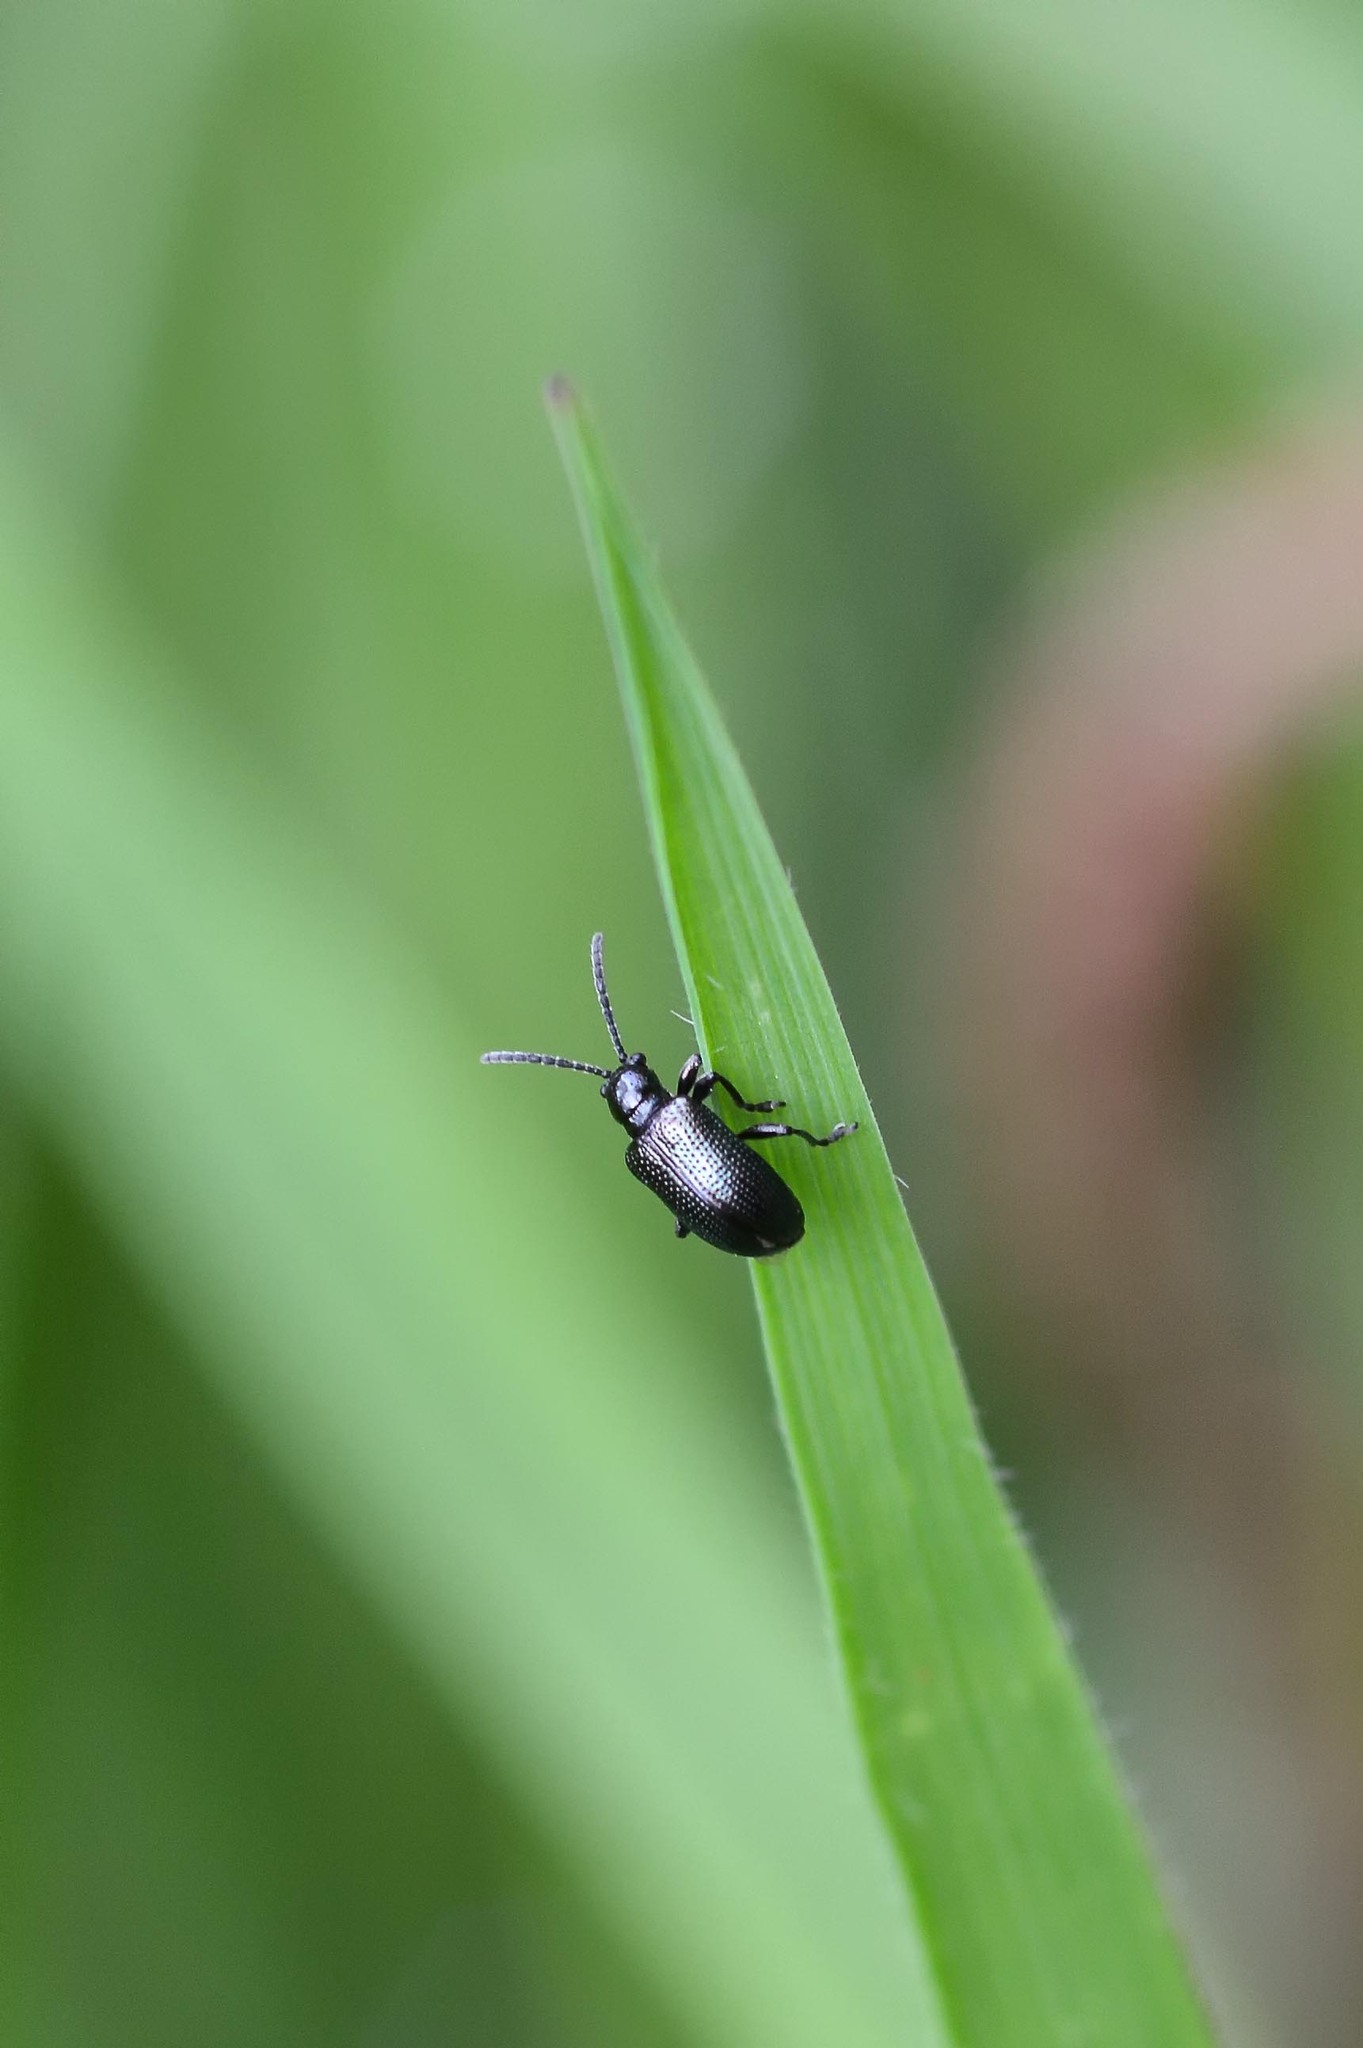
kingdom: Animalia
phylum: Arthropoda
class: Insecta
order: Coleoptera
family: Chrysomelidae
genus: Oulema
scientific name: Oulema gallaeciana
